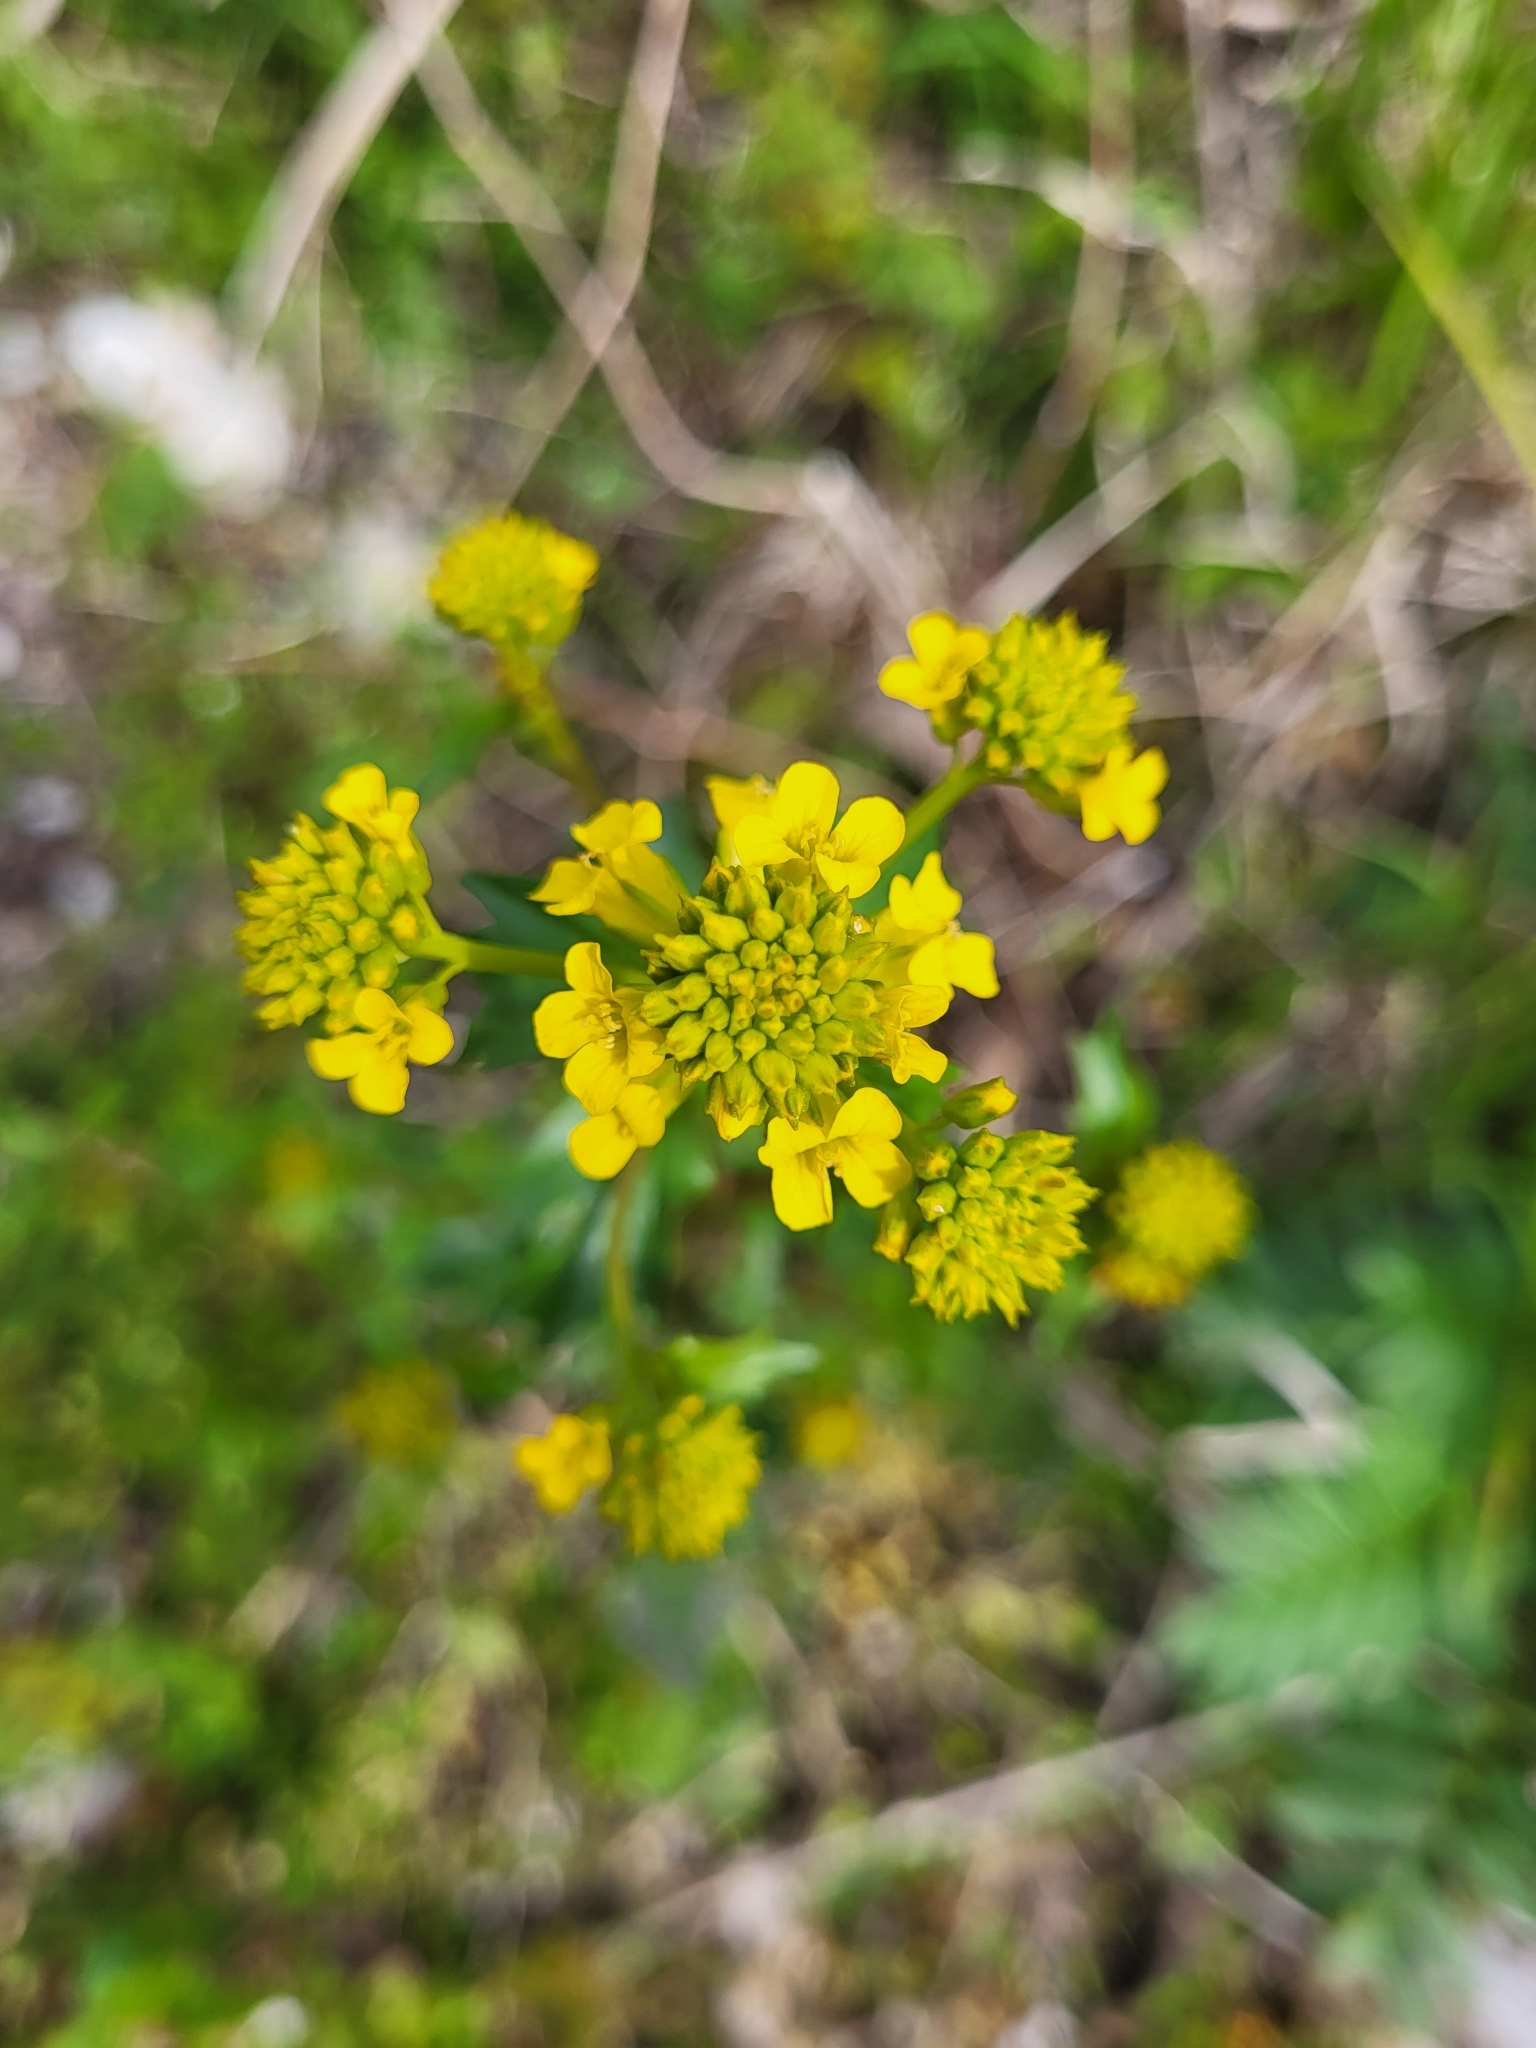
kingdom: Plantae
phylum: Tracheophyta
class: Magnoliopsida
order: Brassicales
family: Brassicaceae
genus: Barbarea
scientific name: Barbarea vulgaris
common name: Cressy-greens
